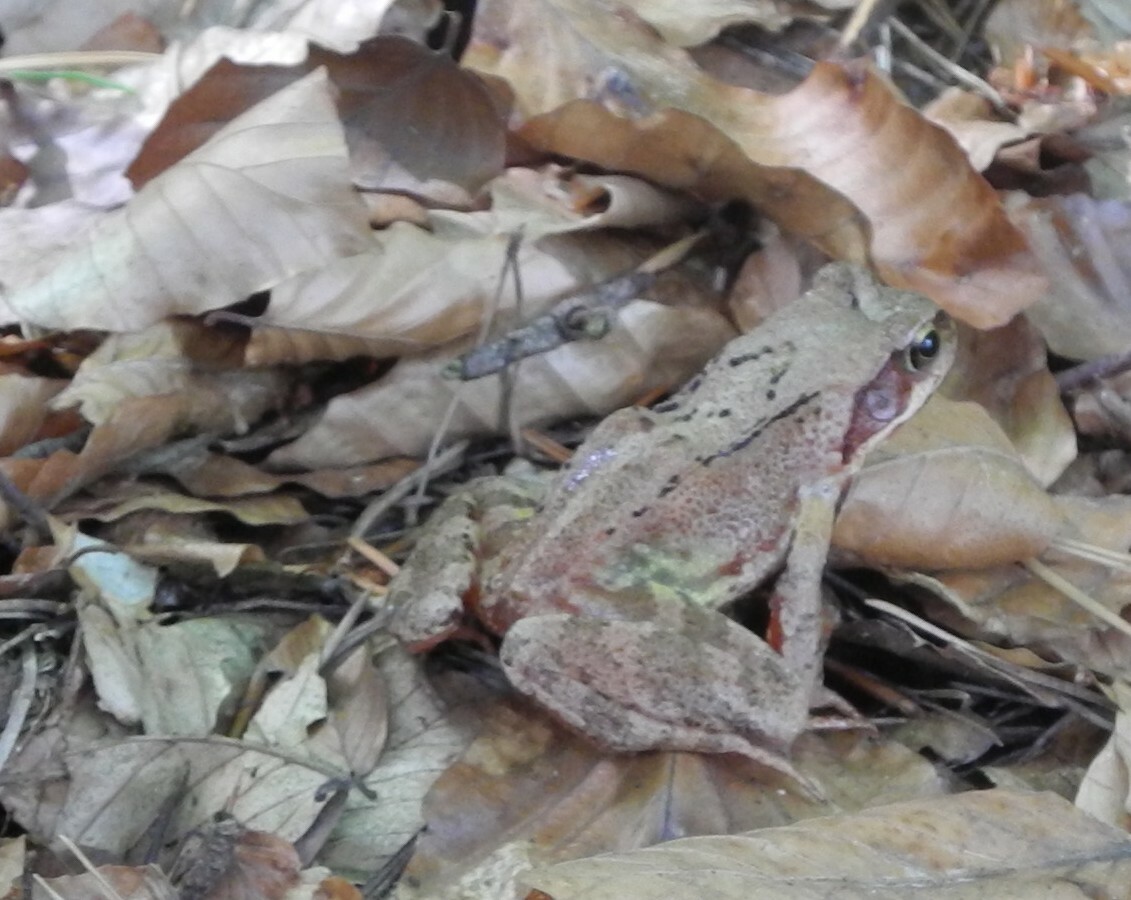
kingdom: Animalia
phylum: Chordata
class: Amphibia
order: Anura
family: Ranidae
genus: Rana
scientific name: Rana temporaria
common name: Common frog
